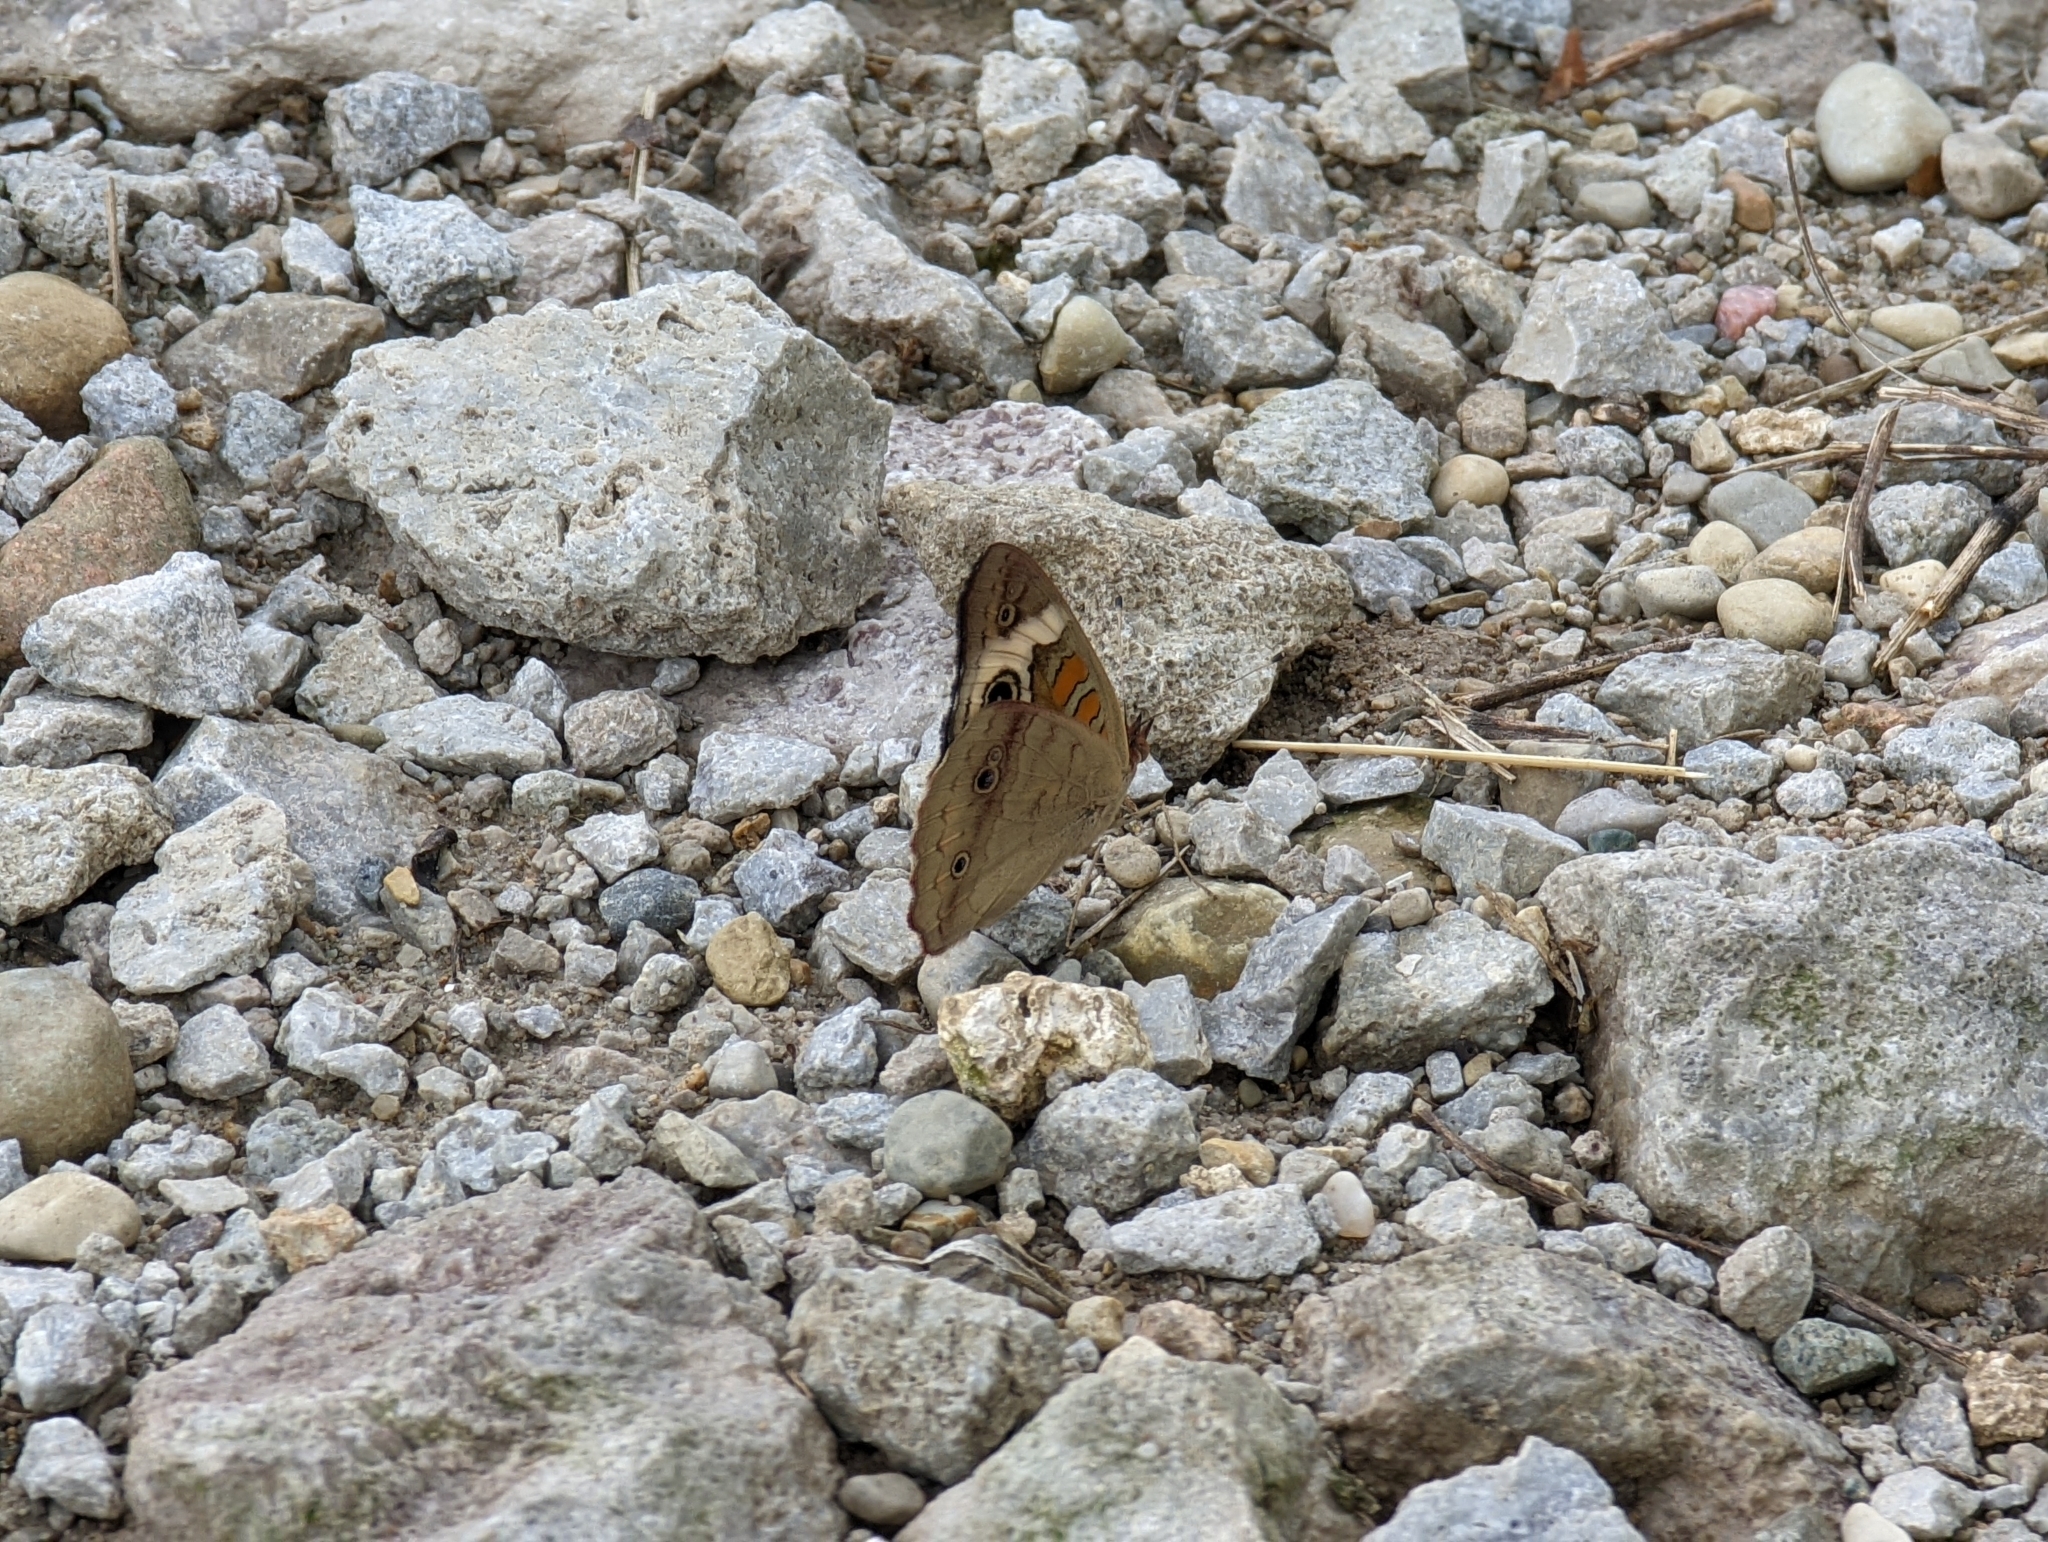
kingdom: Animalia
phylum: Arthropoda
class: Insecta
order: Lepidoptera
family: Nymphalidae
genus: Junonia
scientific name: Junonia coenia
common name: Common buckeye
